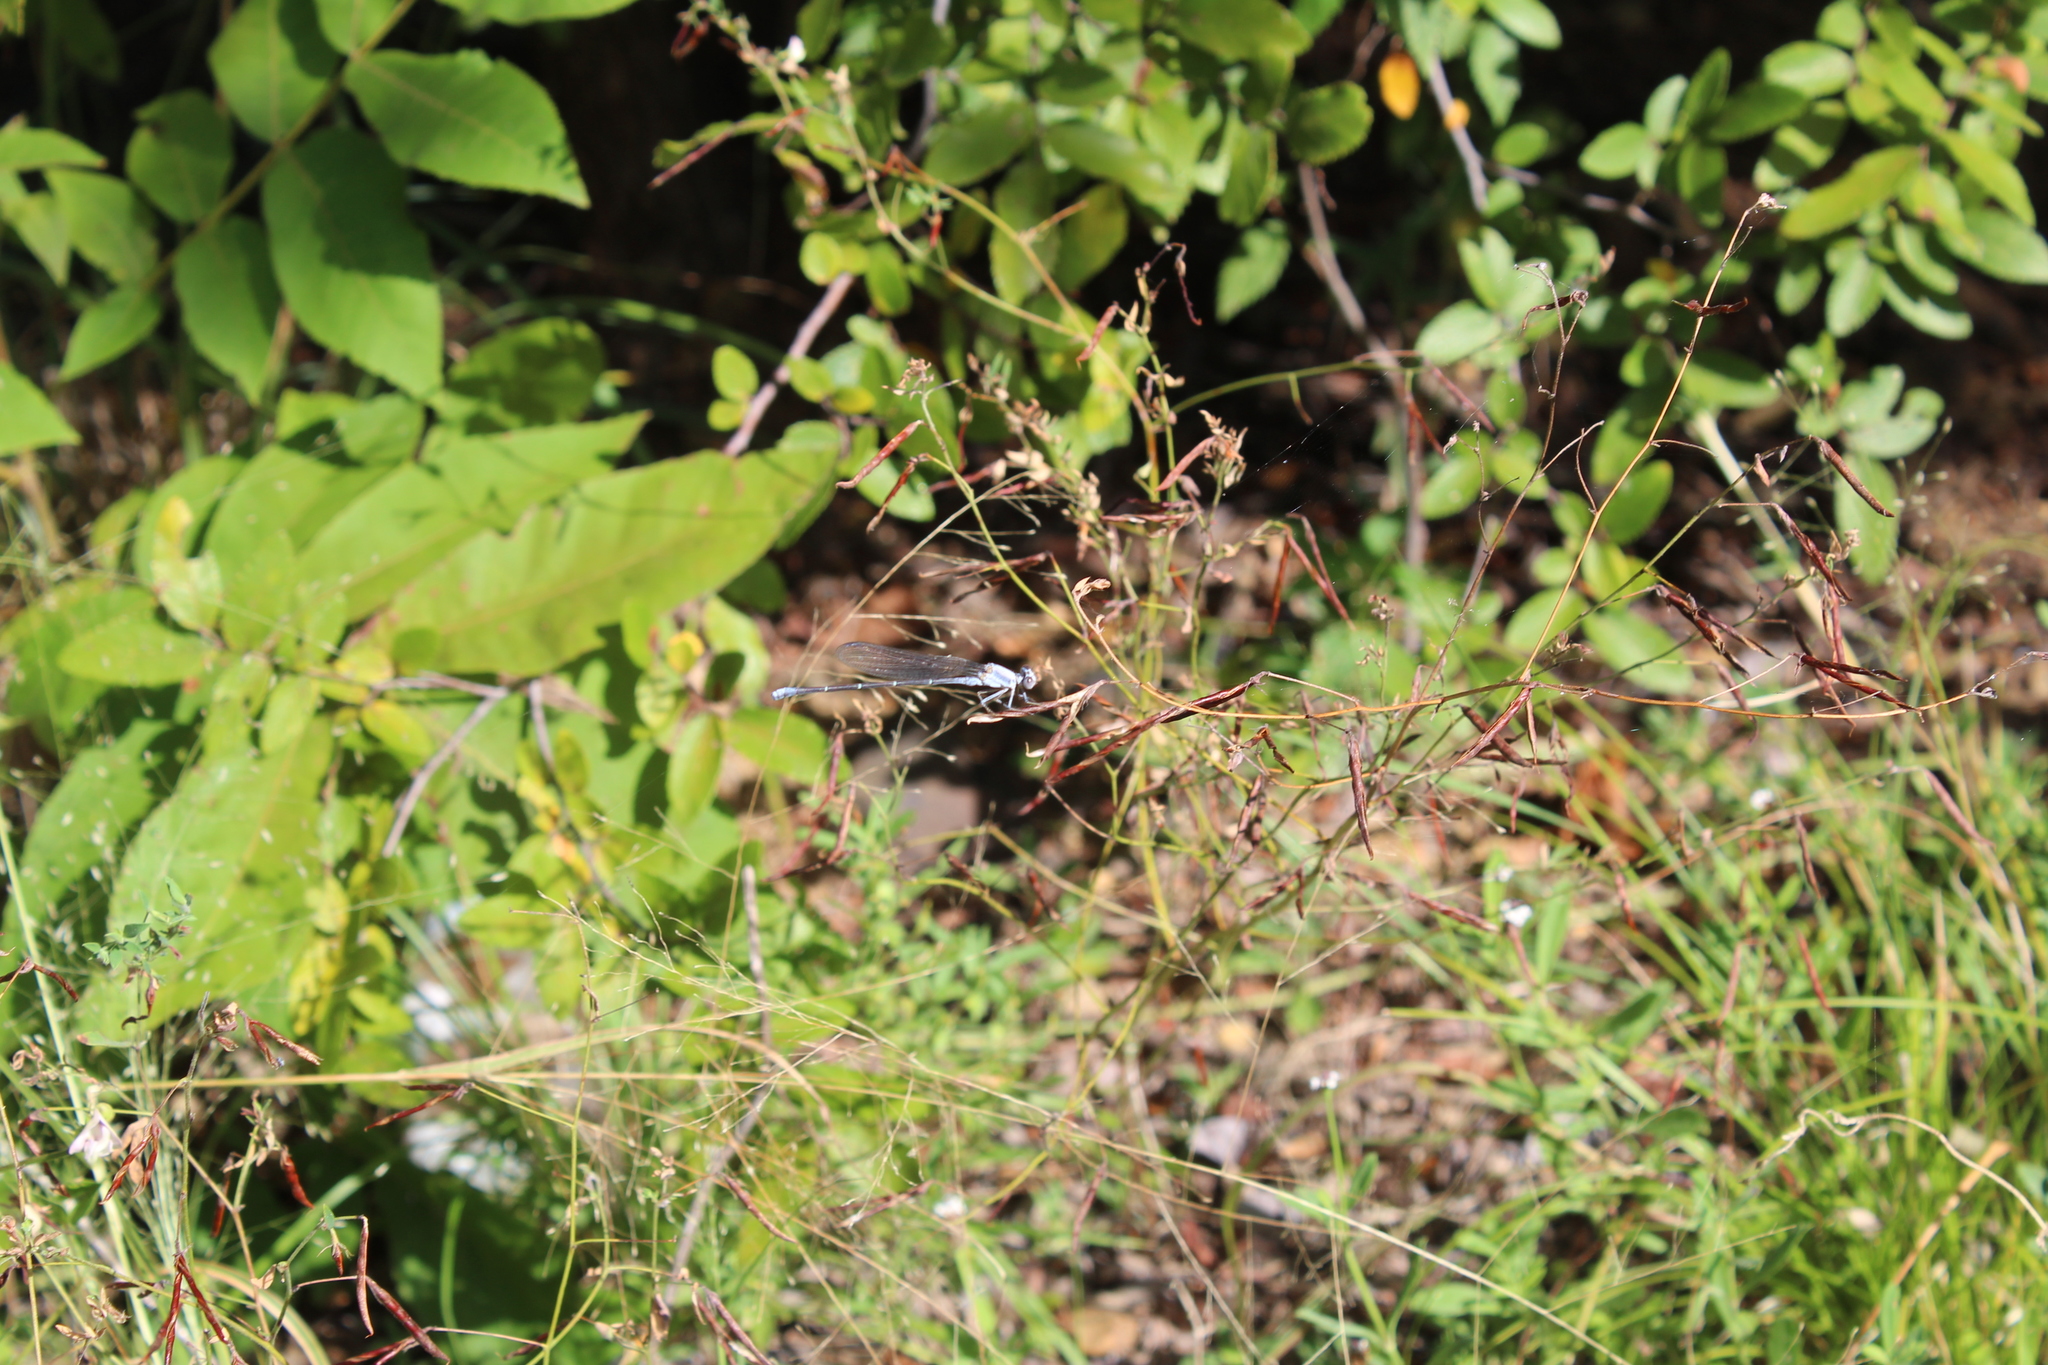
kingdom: Animalia
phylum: Arthropoda
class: Insecta
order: Odonata
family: Coenagrionidae
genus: Argia
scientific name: Argia moesta
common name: Powdered dancer
